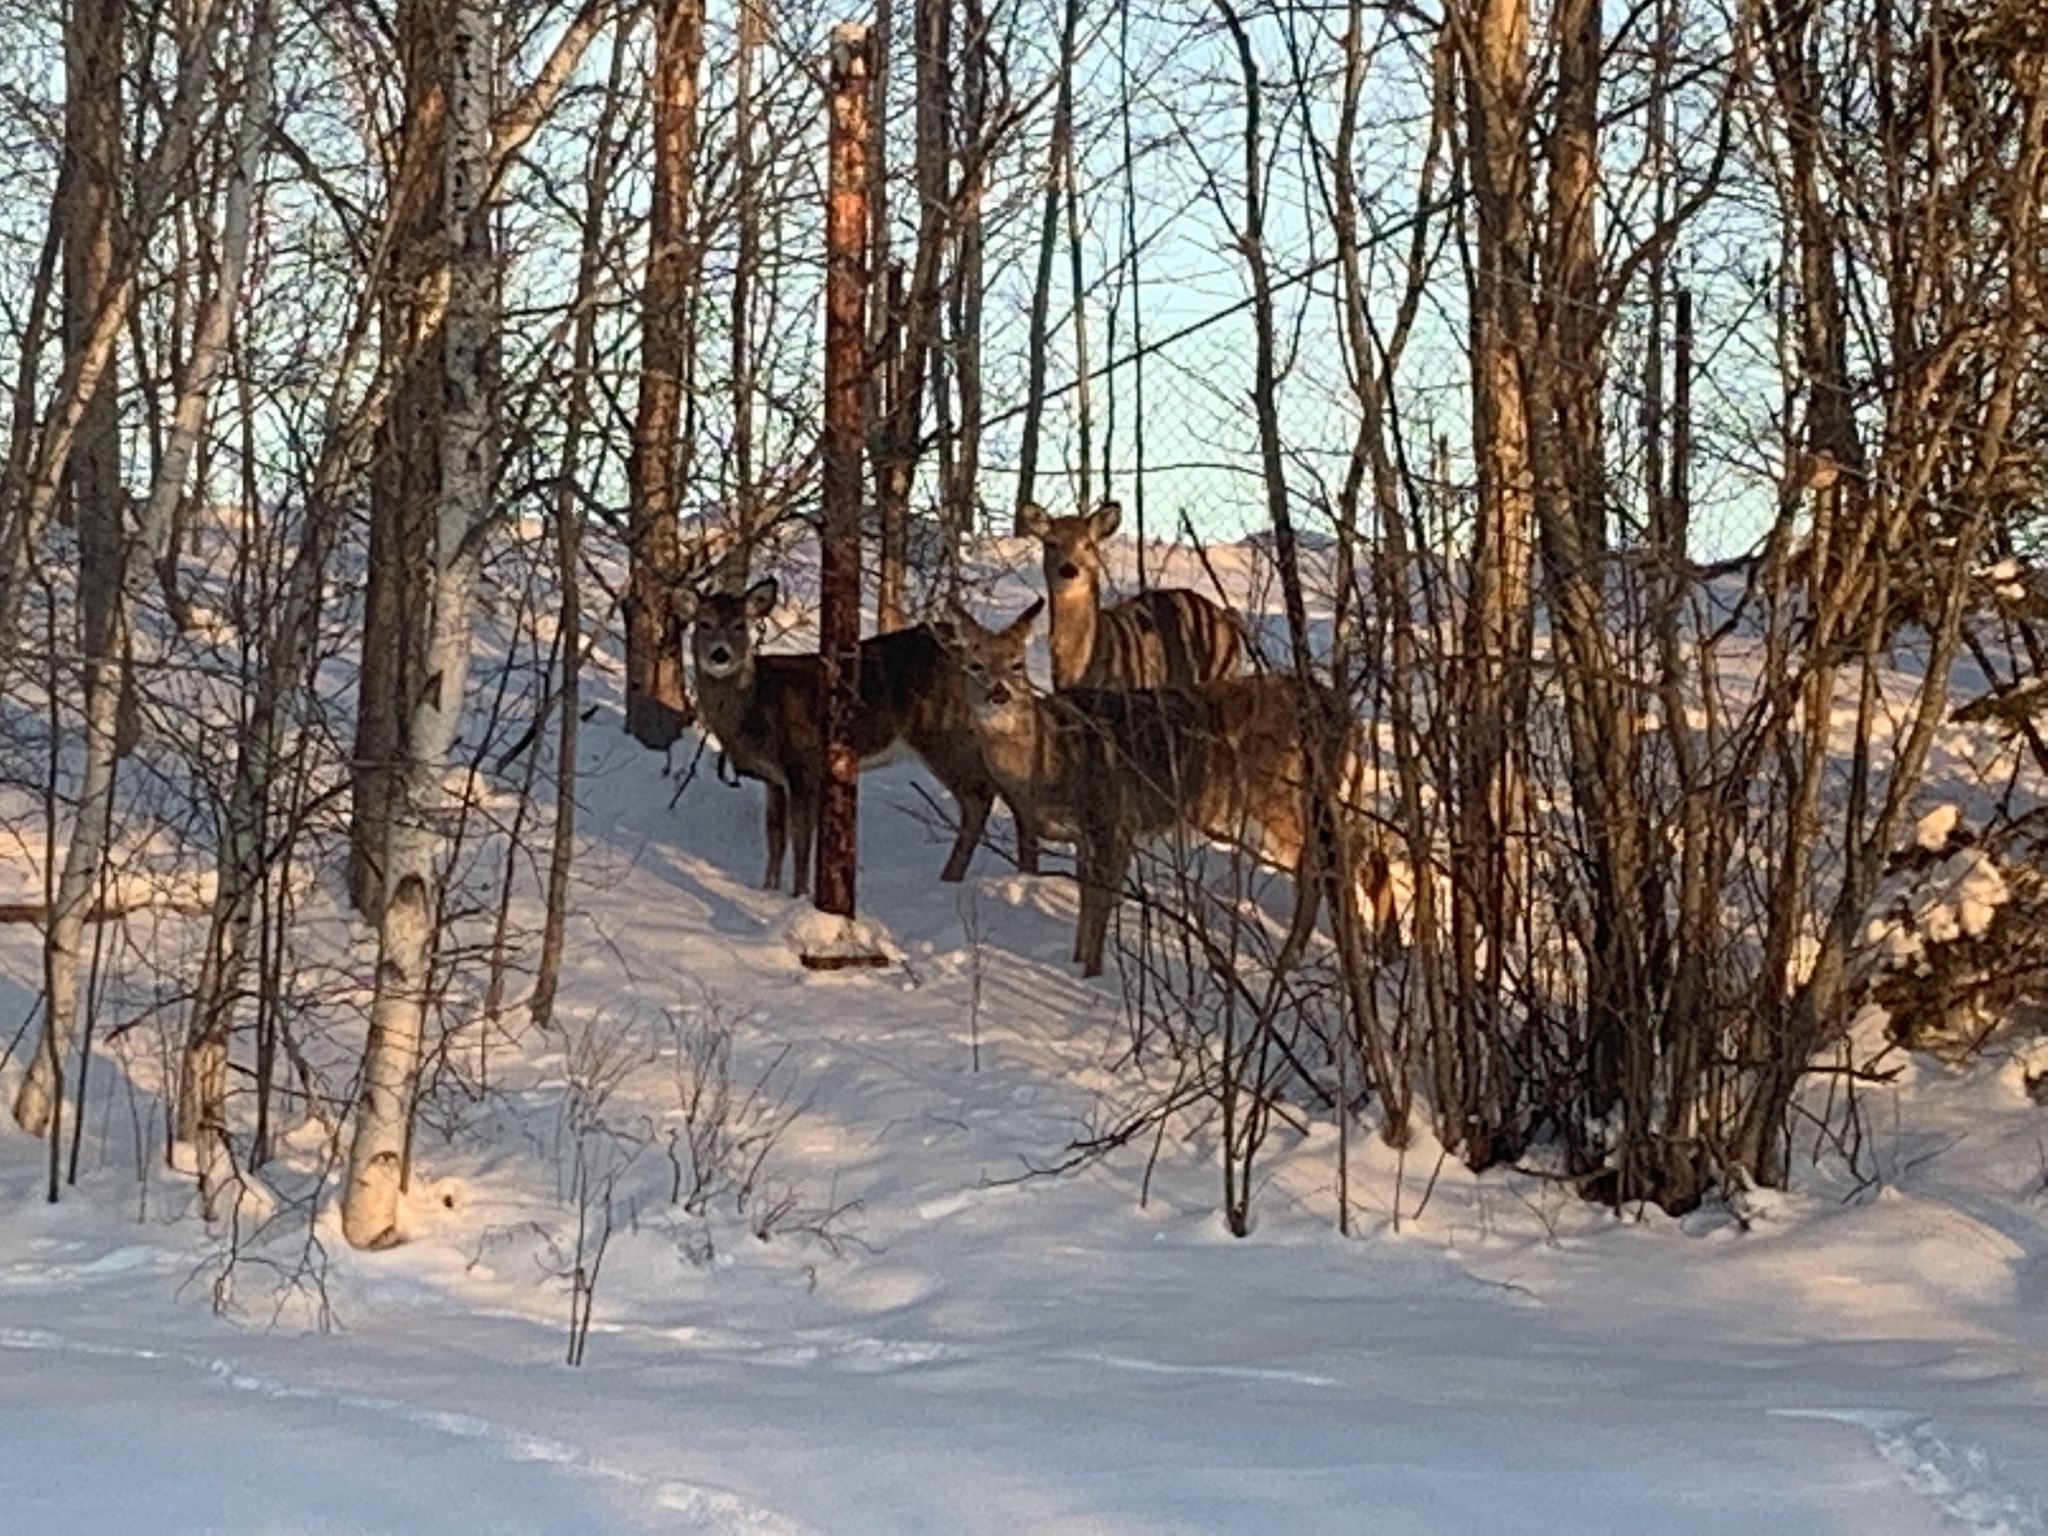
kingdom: Animalia
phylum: Chordata
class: Mammalia
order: Artiodactyla
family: Cervidae
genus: Odocoileus
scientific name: Odocoileus virginianus
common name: White-tailed deer
